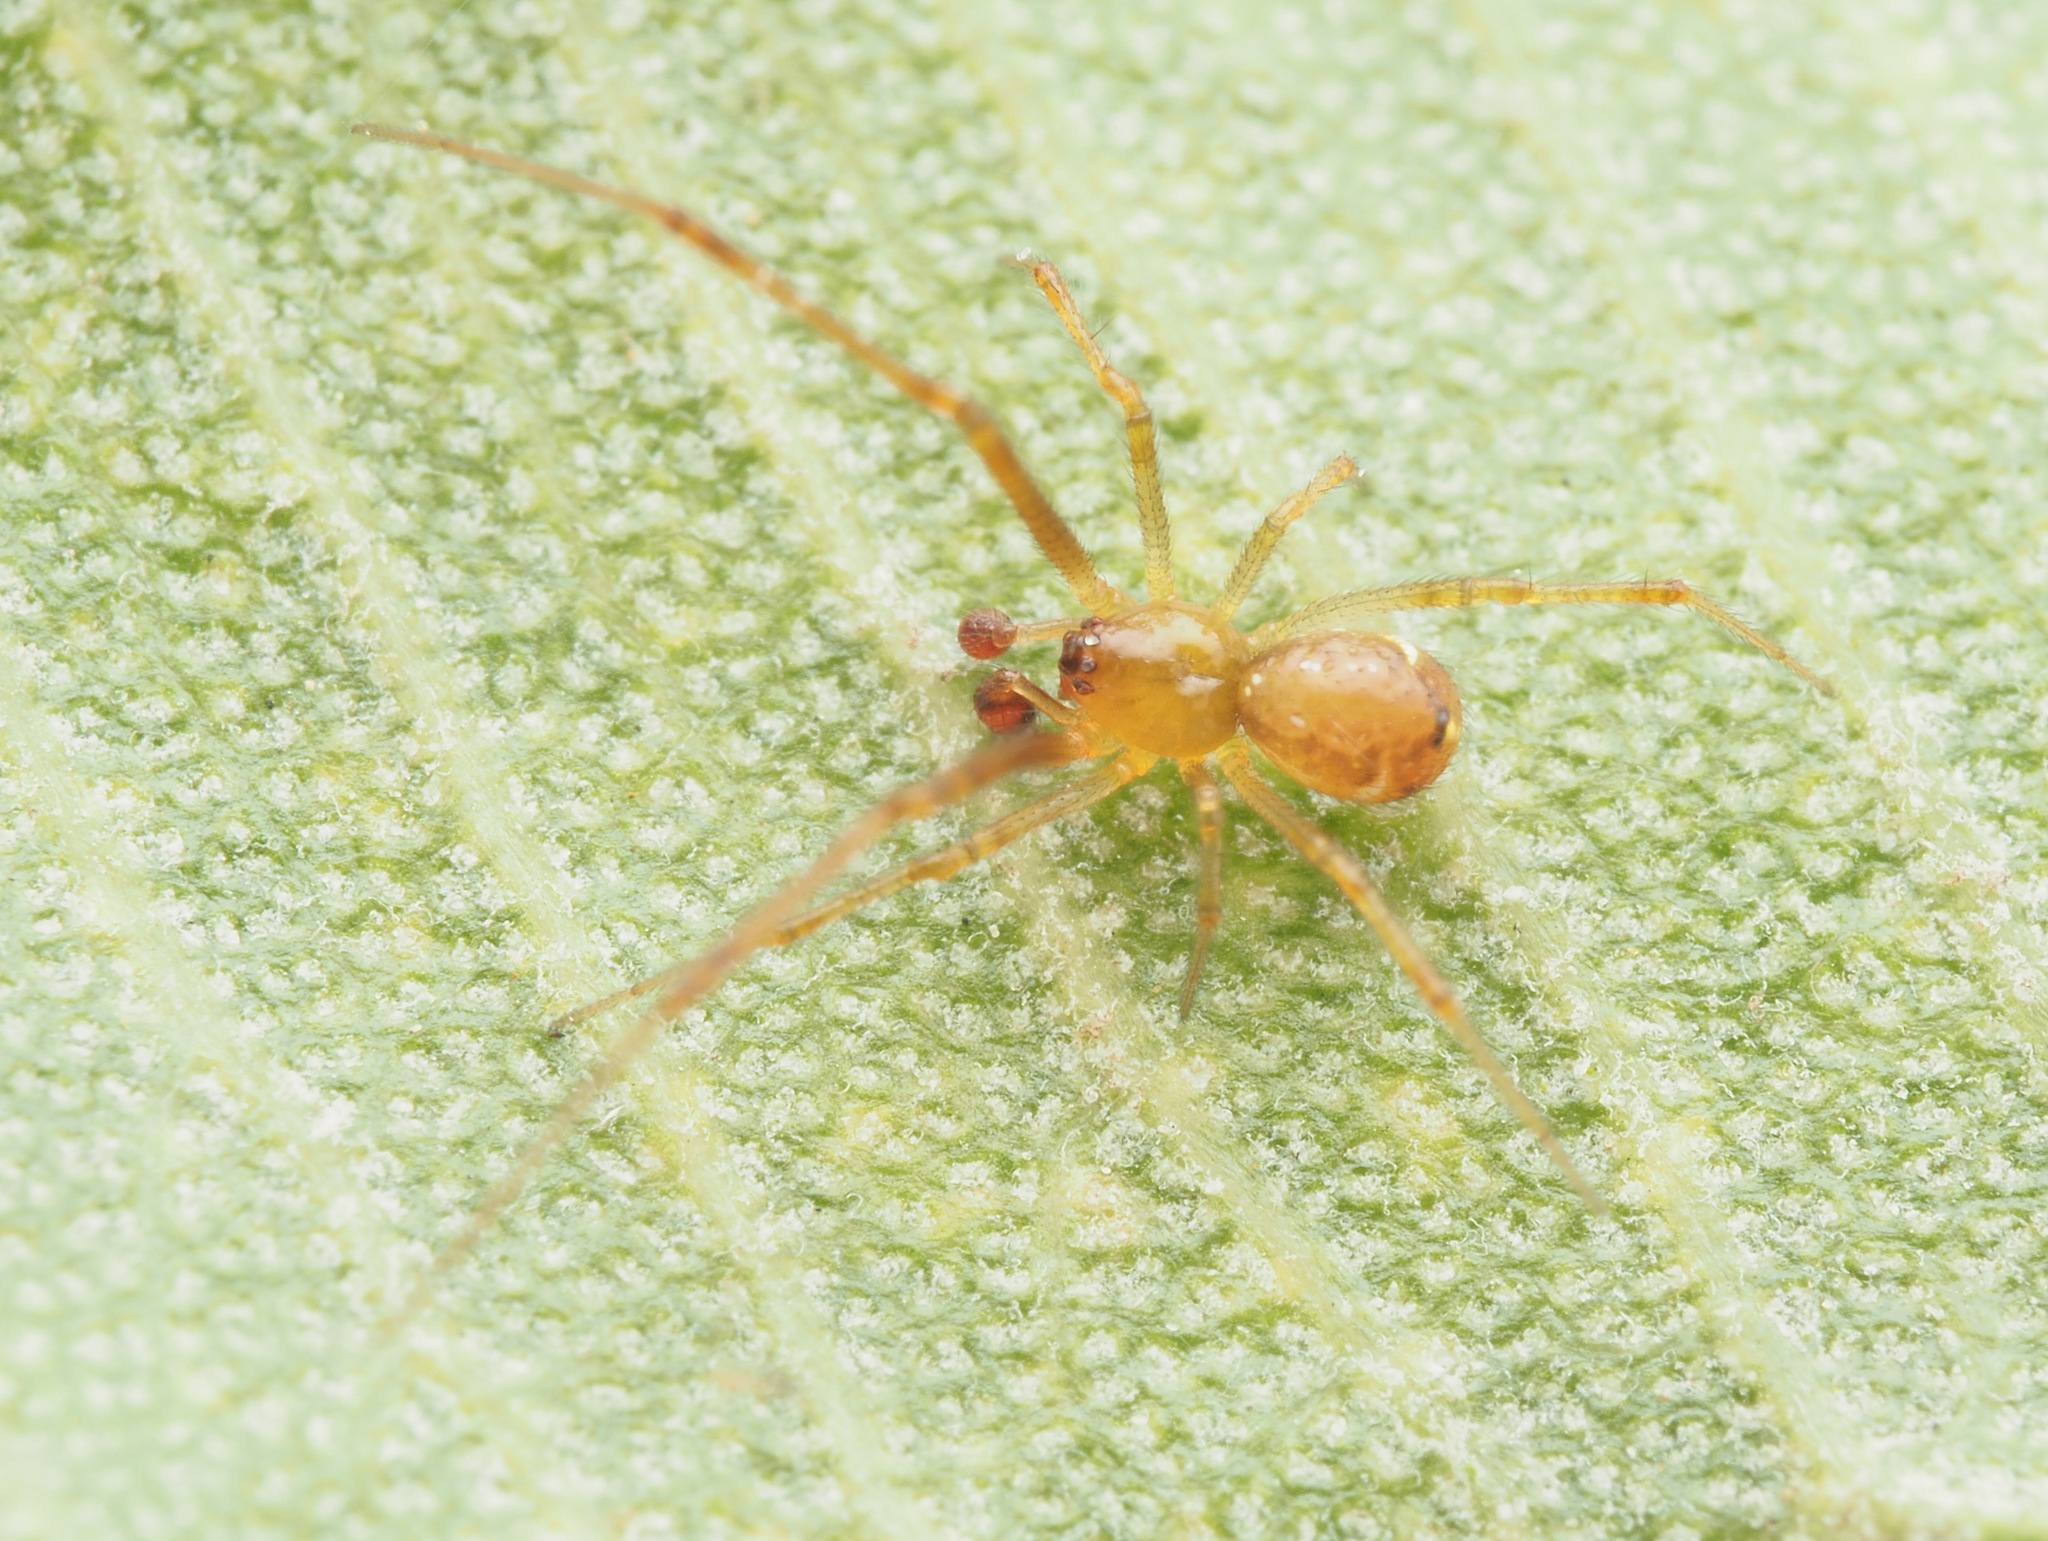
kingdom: Animalia
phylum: Arthropoda
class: Arachnida
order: Araneae
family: Theridiidae
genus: Cryptachaea
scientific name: Cryptachaea
